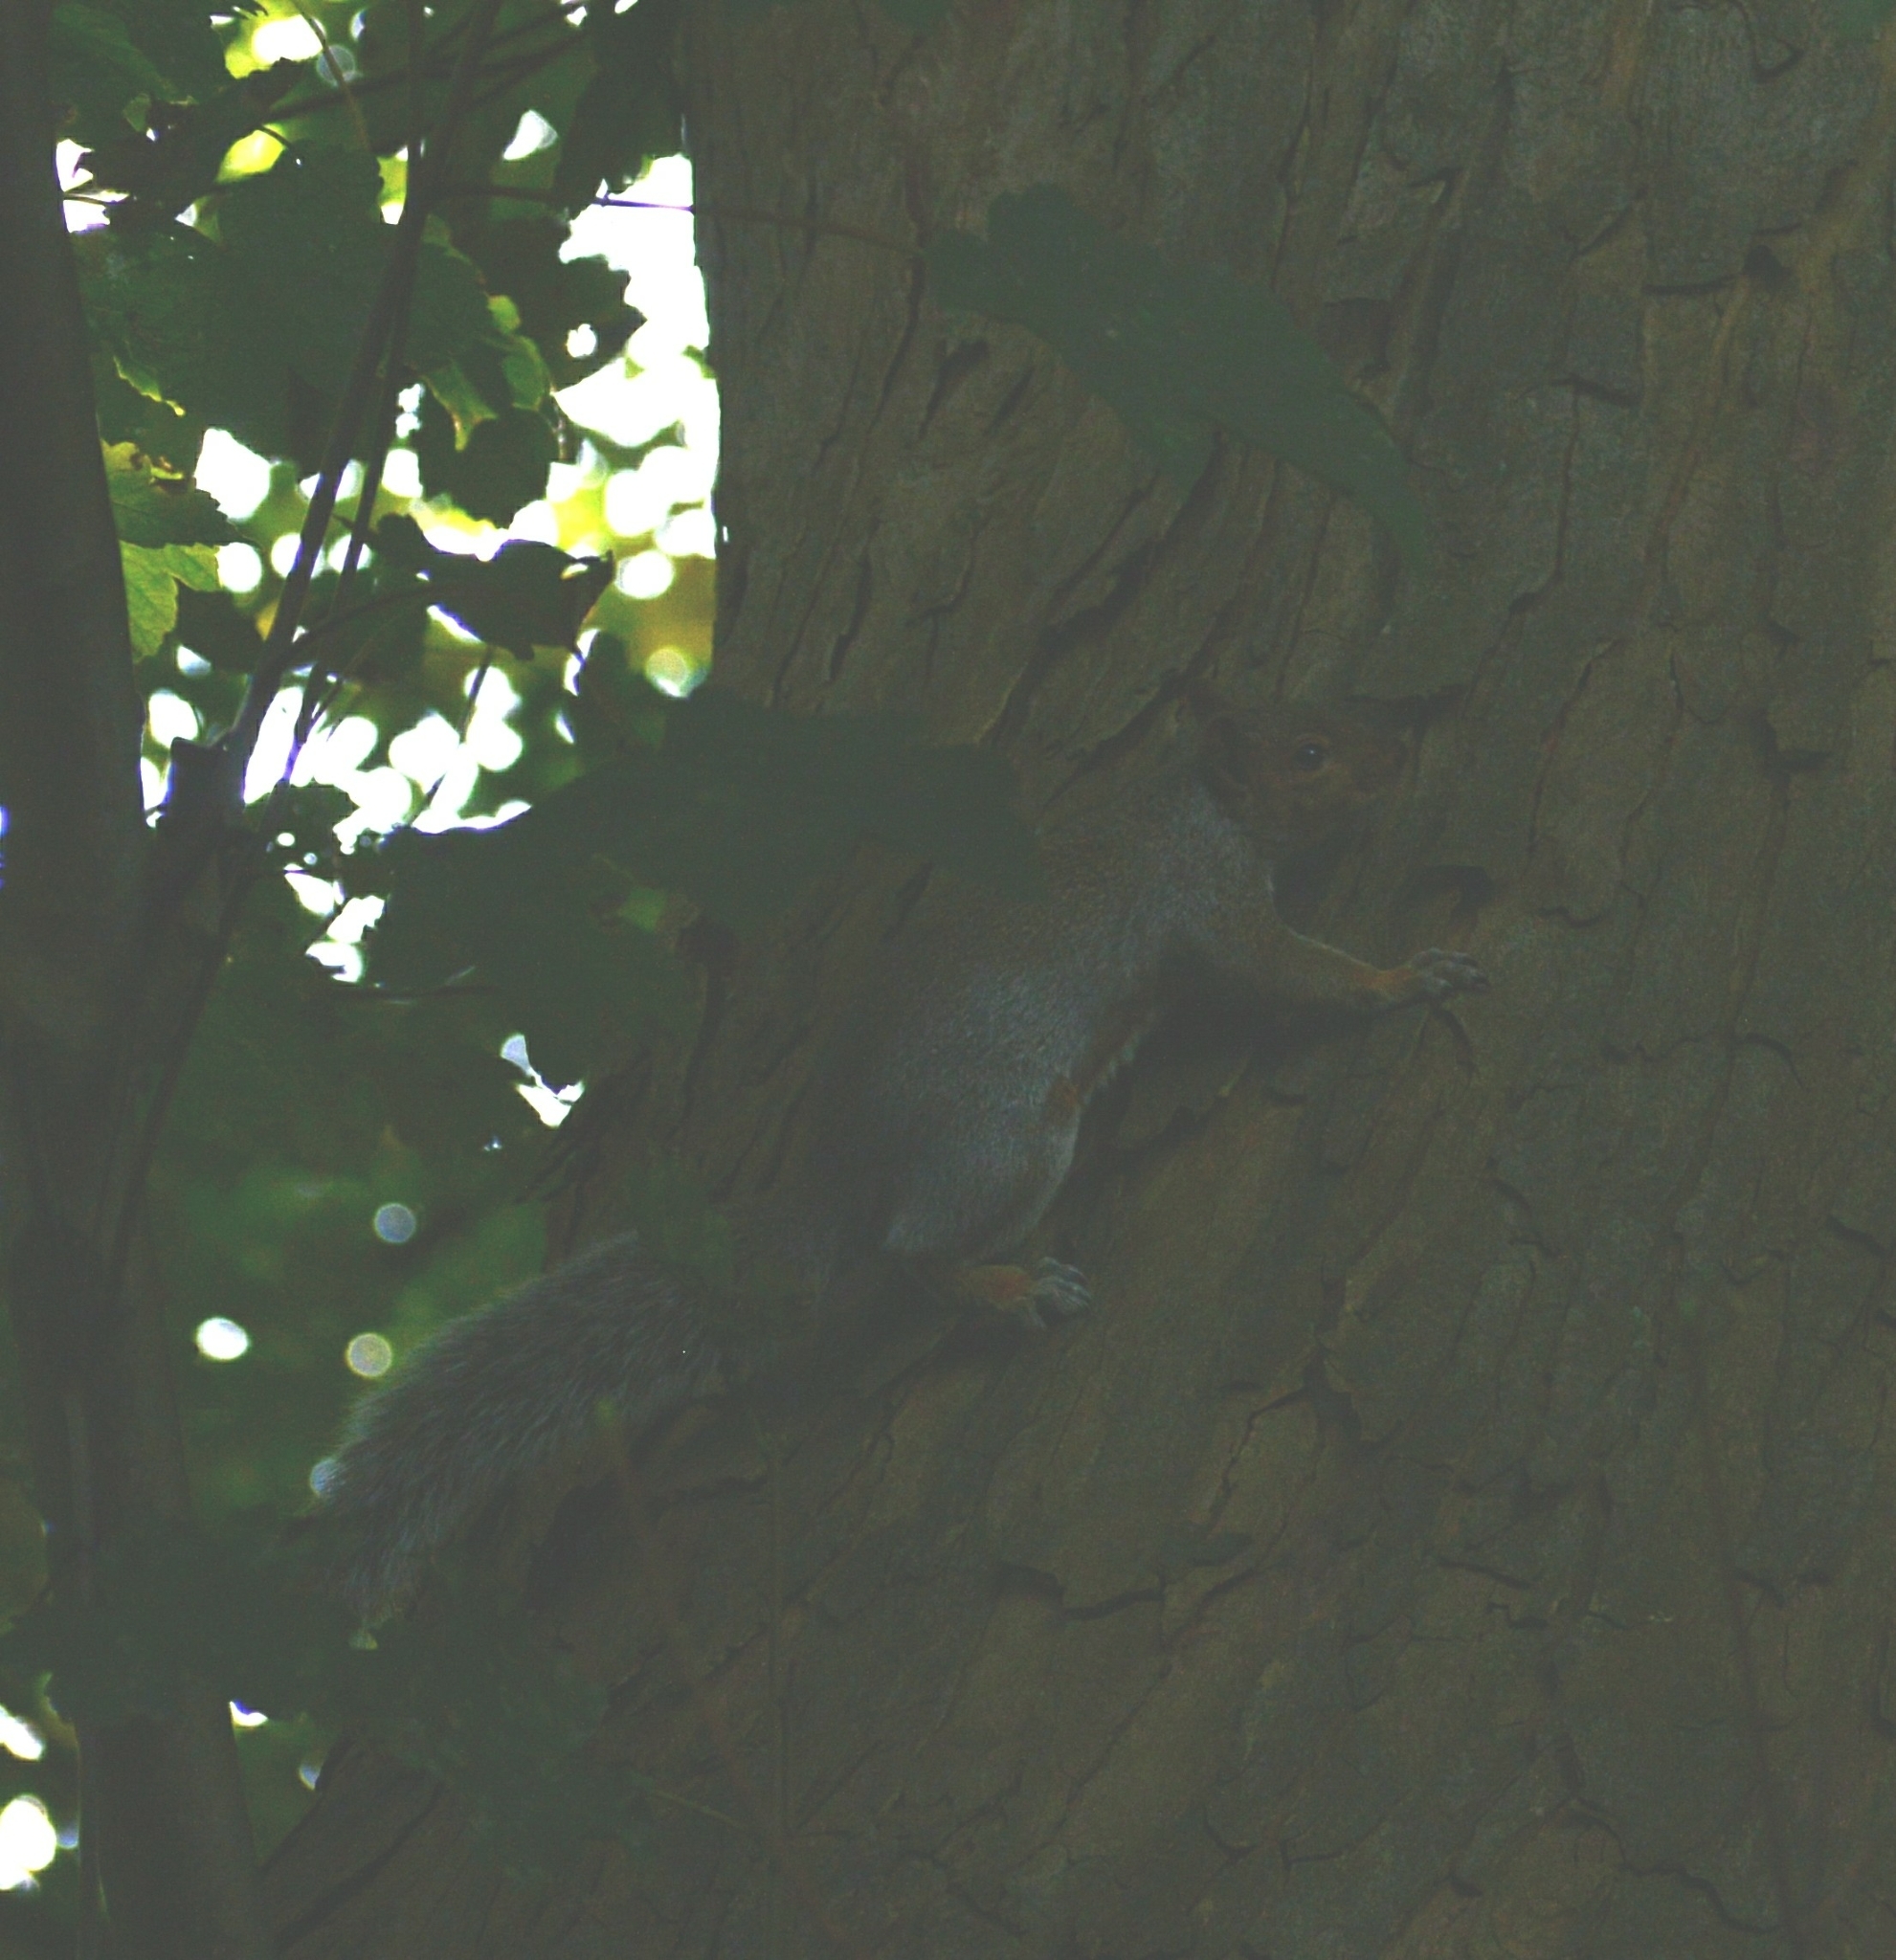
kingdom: Animalia
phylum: Chordata
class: Mammalia
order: Rodentia
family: Sciuridae
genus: Sciurus
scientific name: Sciurus carolinensis
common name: Eastern gray squirrel
